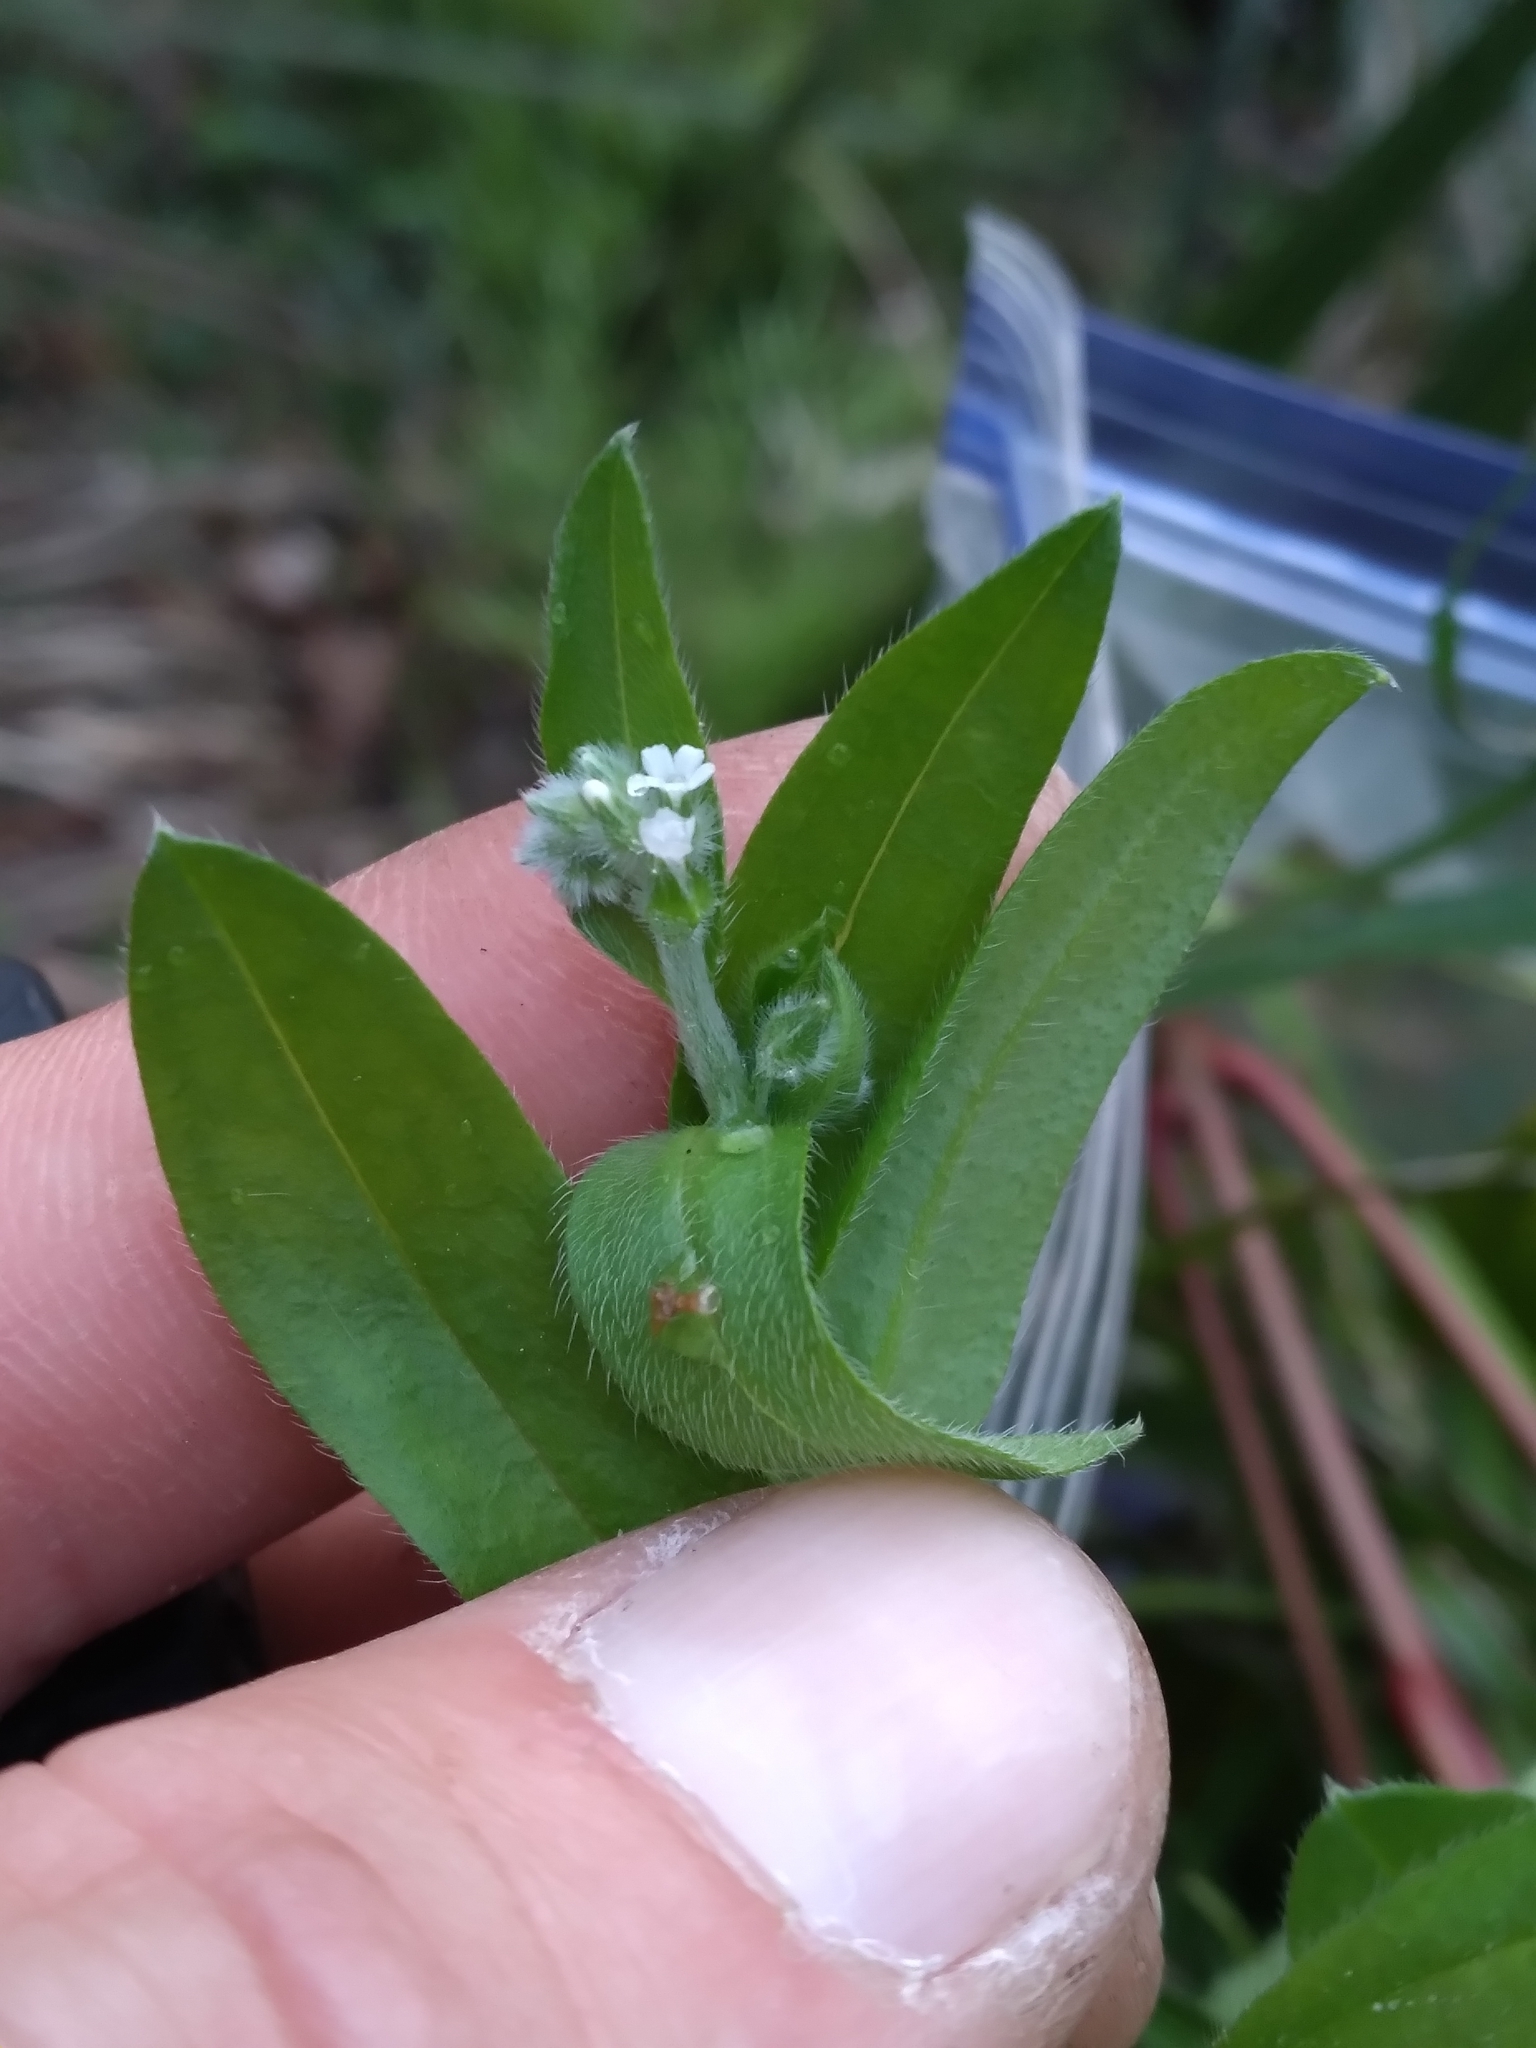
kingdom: Plantae
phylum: Tracheophyta
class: Magnoliopsida
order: Boraginales
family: Boraginaceae
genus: Myosotis
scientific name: Myosotis macrosperma
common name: Large-seed forget-me-not
